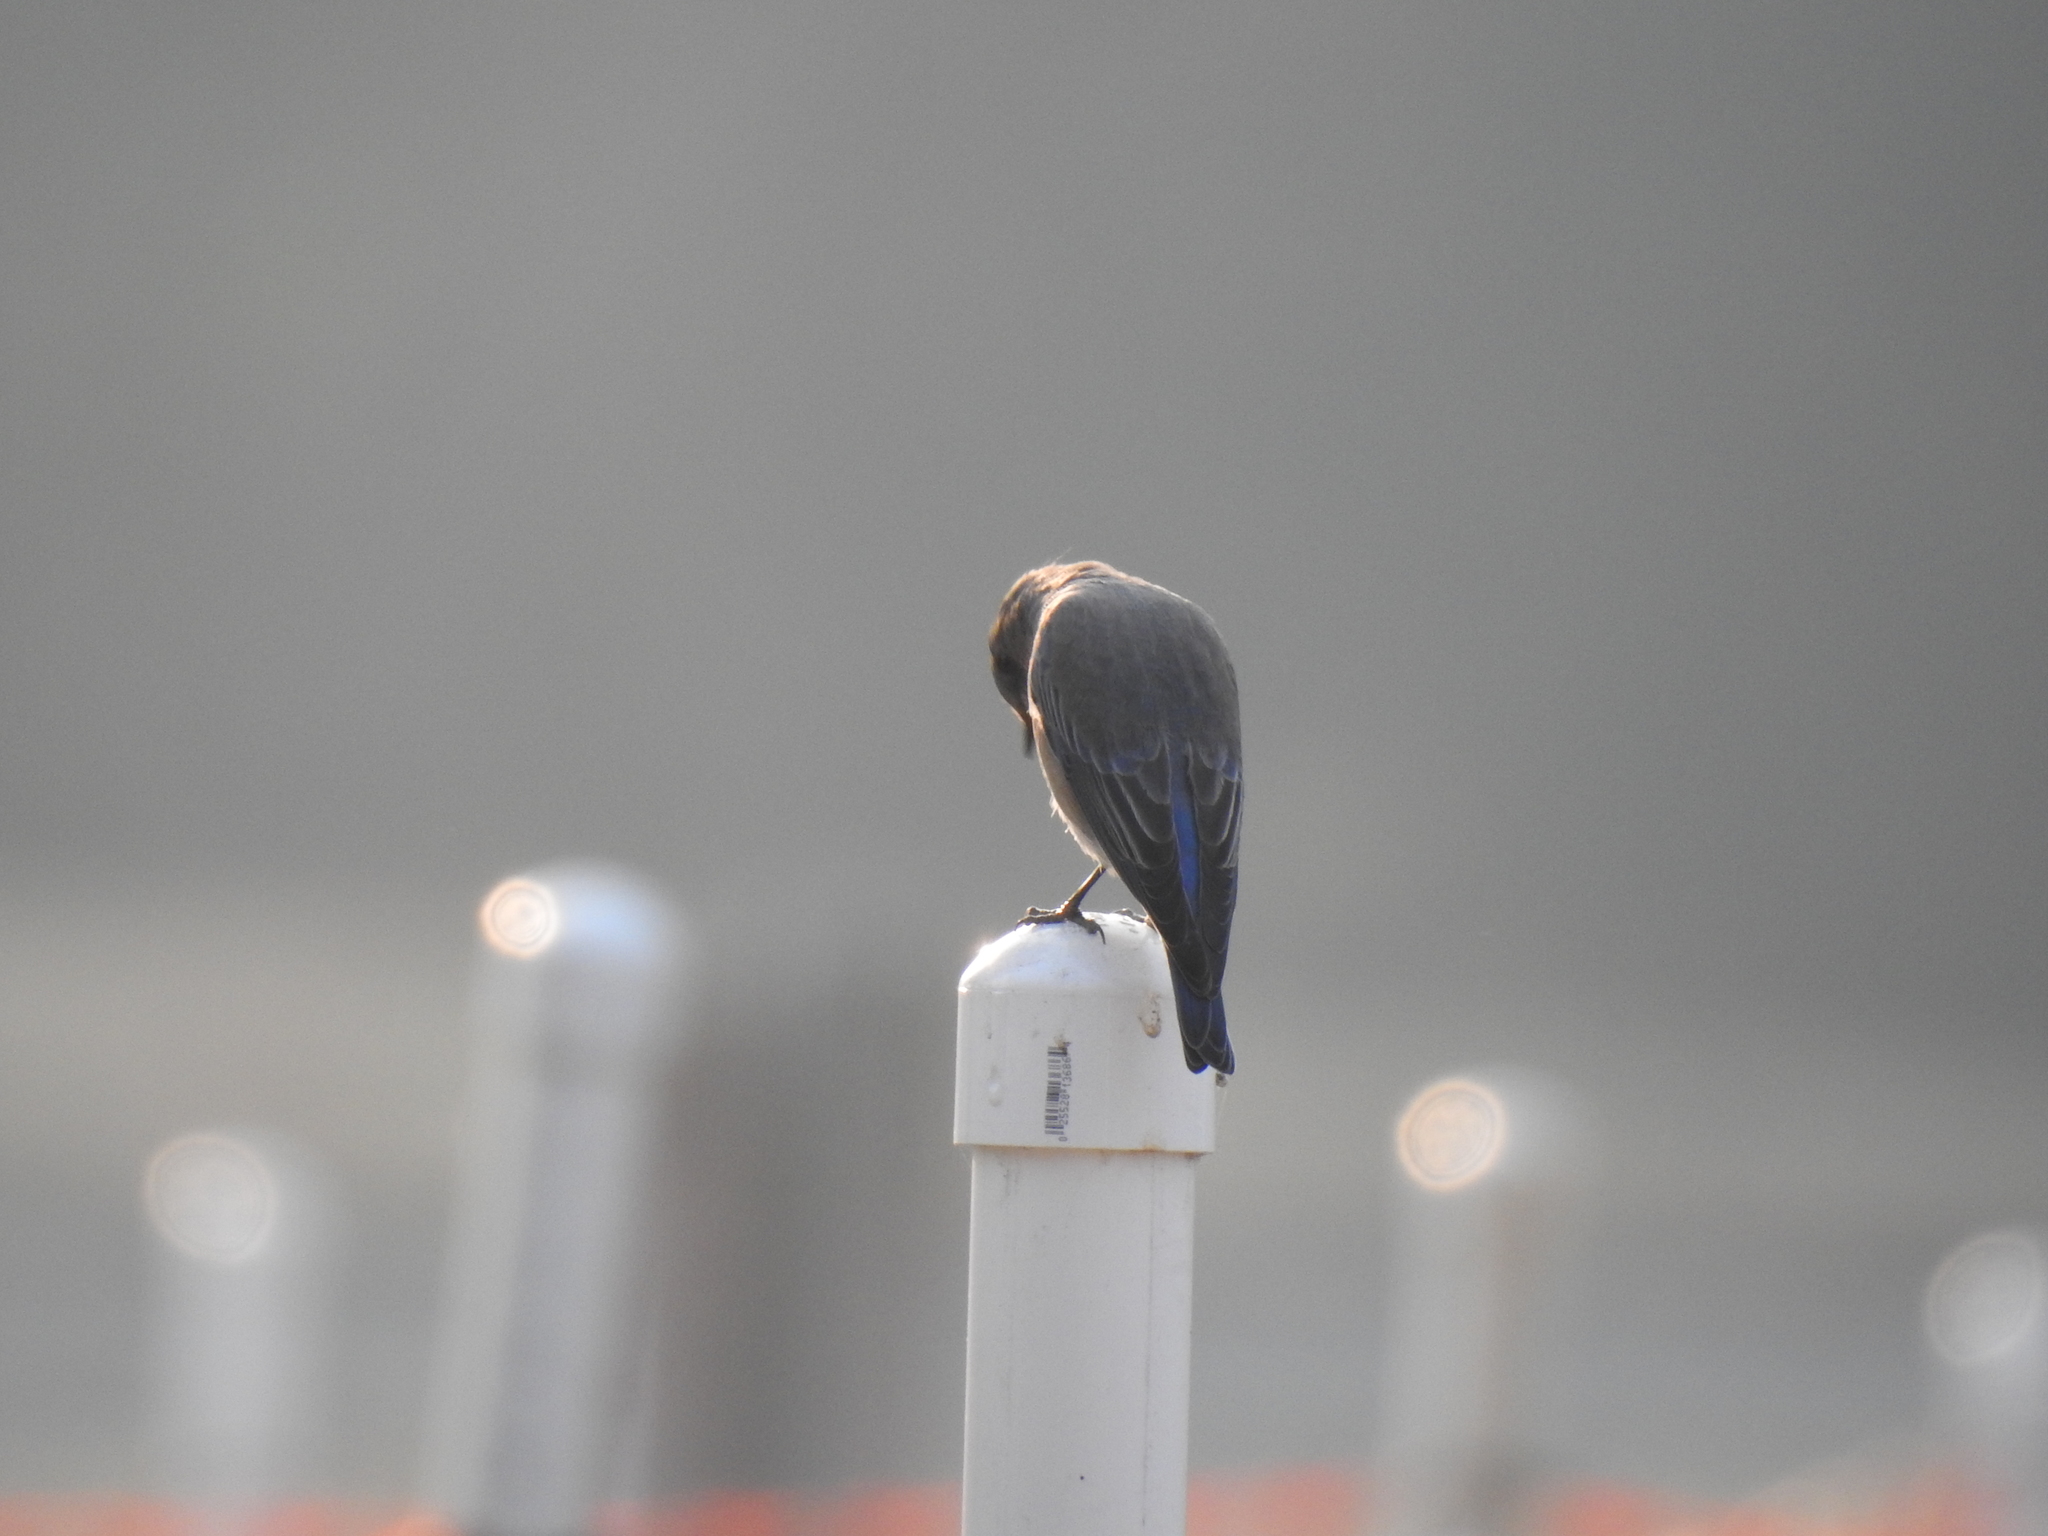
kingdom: Animalia
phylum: Chordata
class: Aves
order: Passeriformes
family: Turdidae
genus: Sialia
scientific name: Sialia mexicana
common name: Western bluebird
